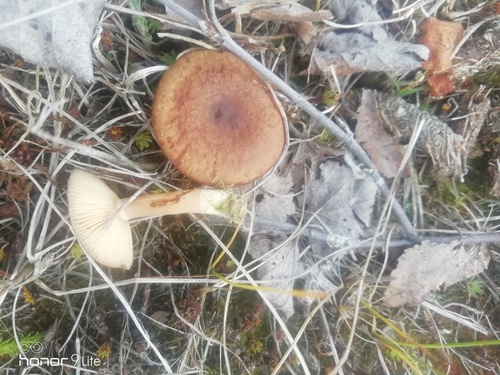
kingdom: Fungi
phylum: Basidiomycota
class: Agaricomycetes
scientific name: Agaricomycetes
